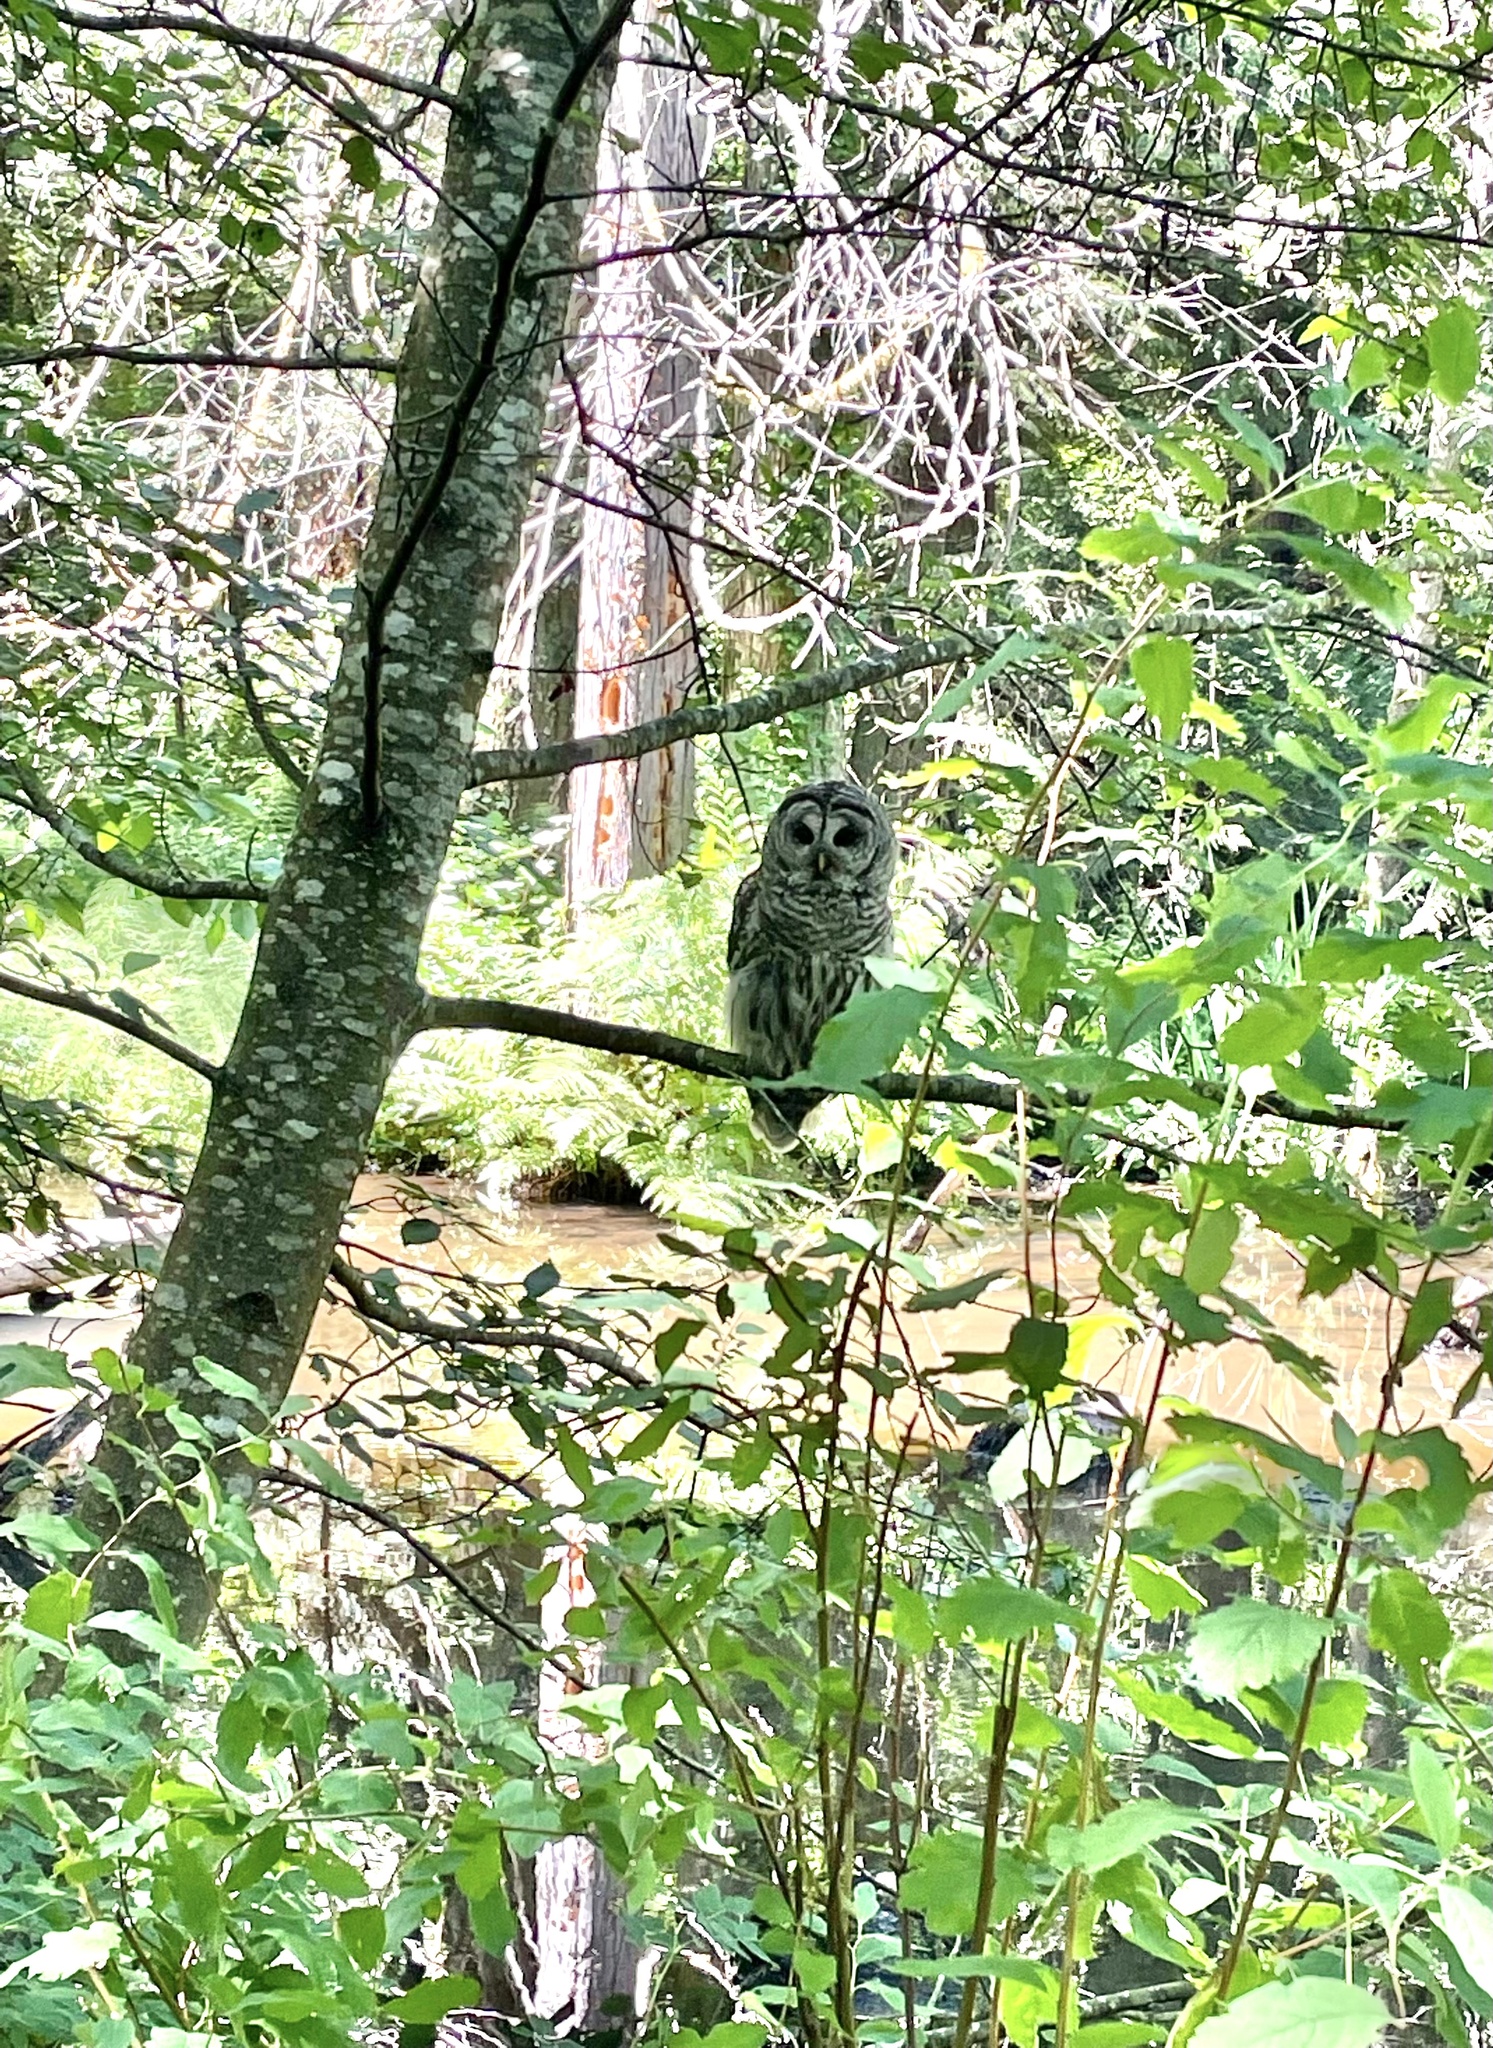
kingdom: Animalia
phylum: Chordata
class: Aves
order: Strigiformes
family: Strigidae
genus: Strix
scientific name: Strix varia
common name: Barred owl
